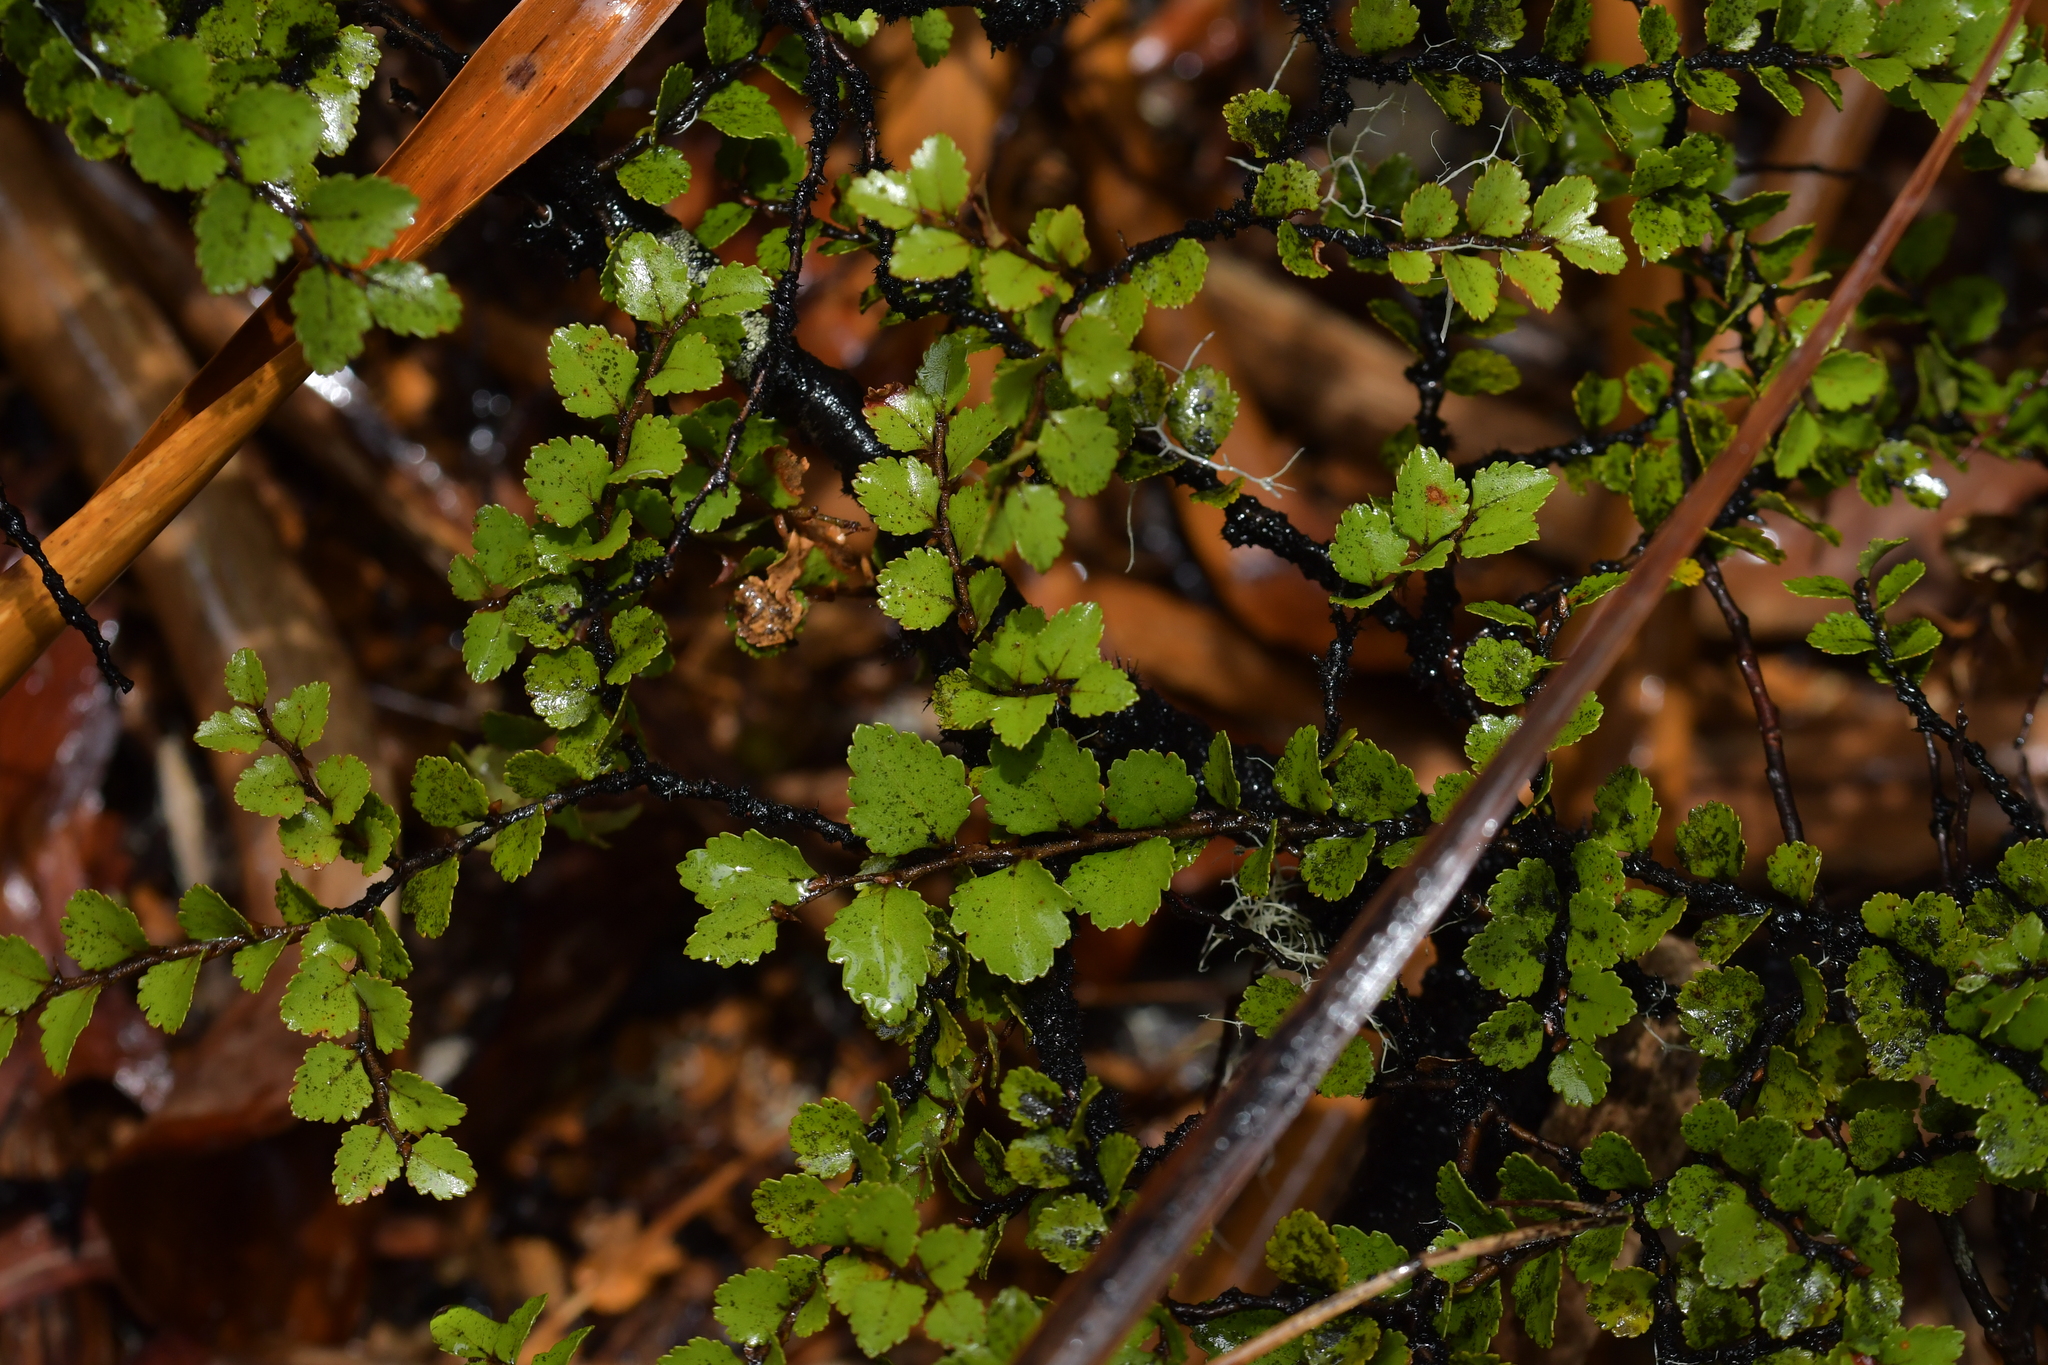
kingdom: Plantae
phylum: Tracheophyta
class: Magnoliopsida
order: Fagales
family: Nothofagaceae
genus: Nothofagus
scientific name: Nothofagus menziesii
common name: Silver beech
